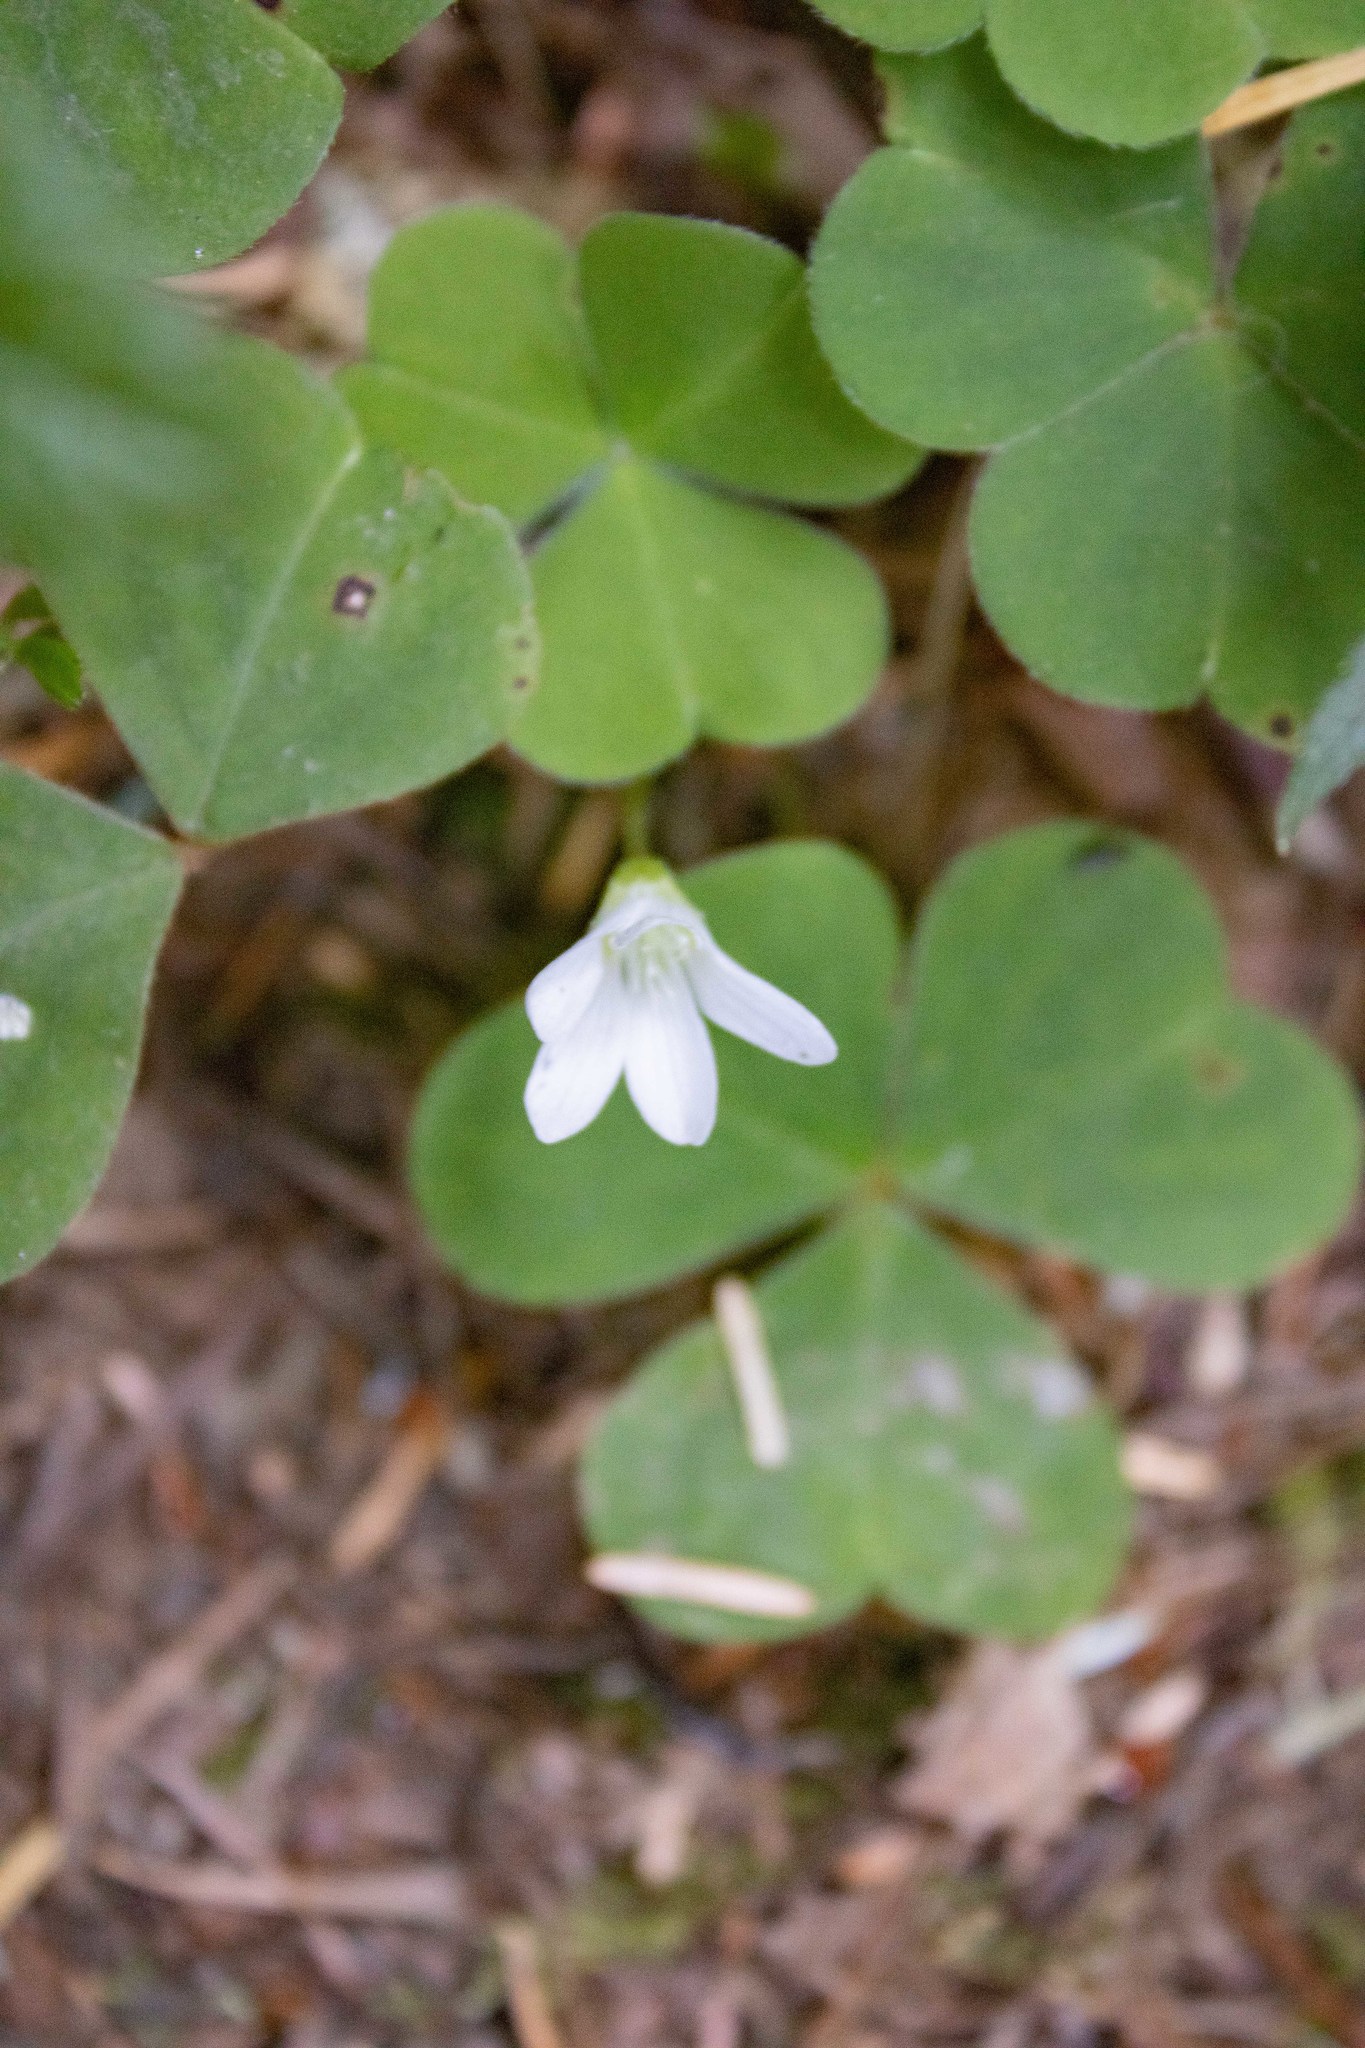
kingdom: Plantae
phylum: Tracheophyta
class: Magnoliopsida
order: Oxalidales
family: Oxalidaceae
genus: Oxalis
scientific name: Oxalis oregana
